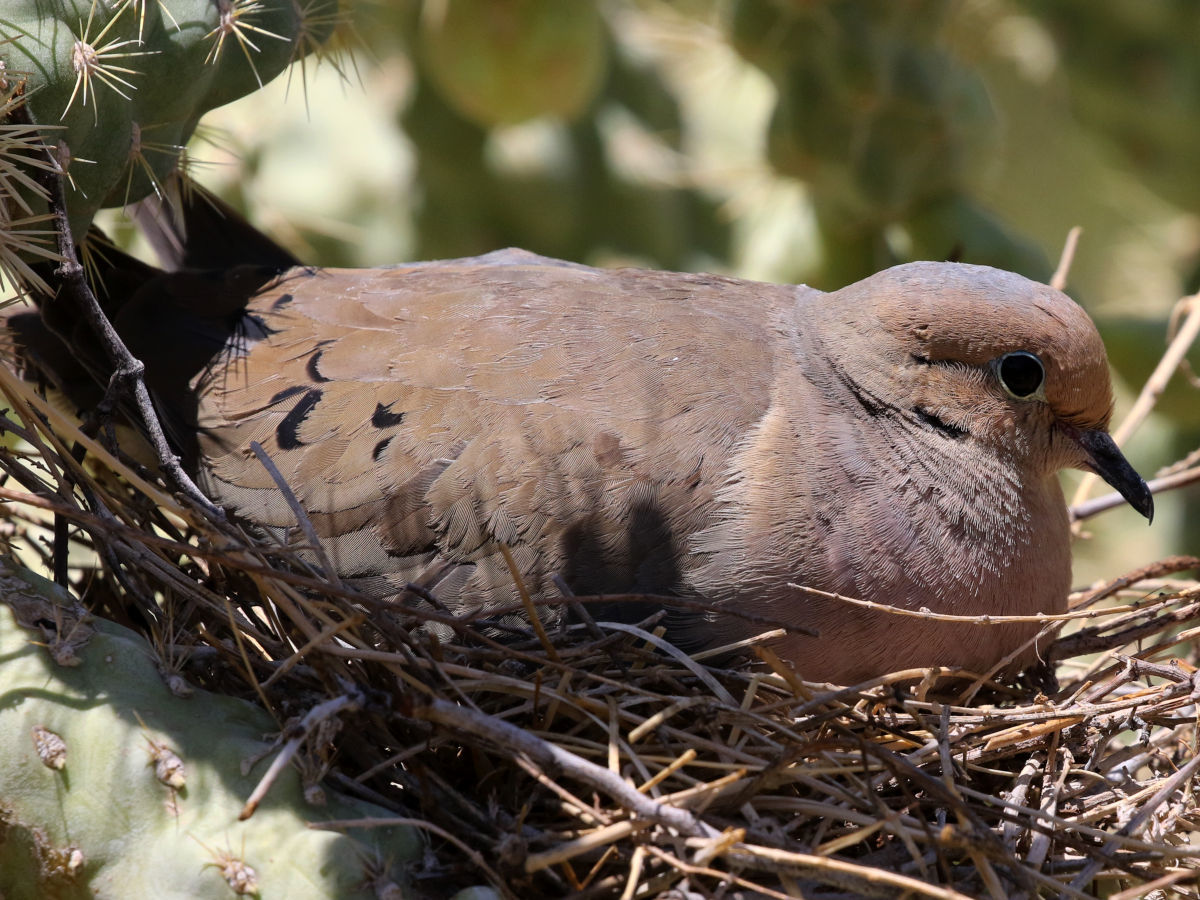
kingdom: Animalia
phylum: Chordata
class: Aves
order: Columbiformes
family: Columbidae
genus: Zenaida
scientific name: Zenaida macroura
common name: Mourning dove
